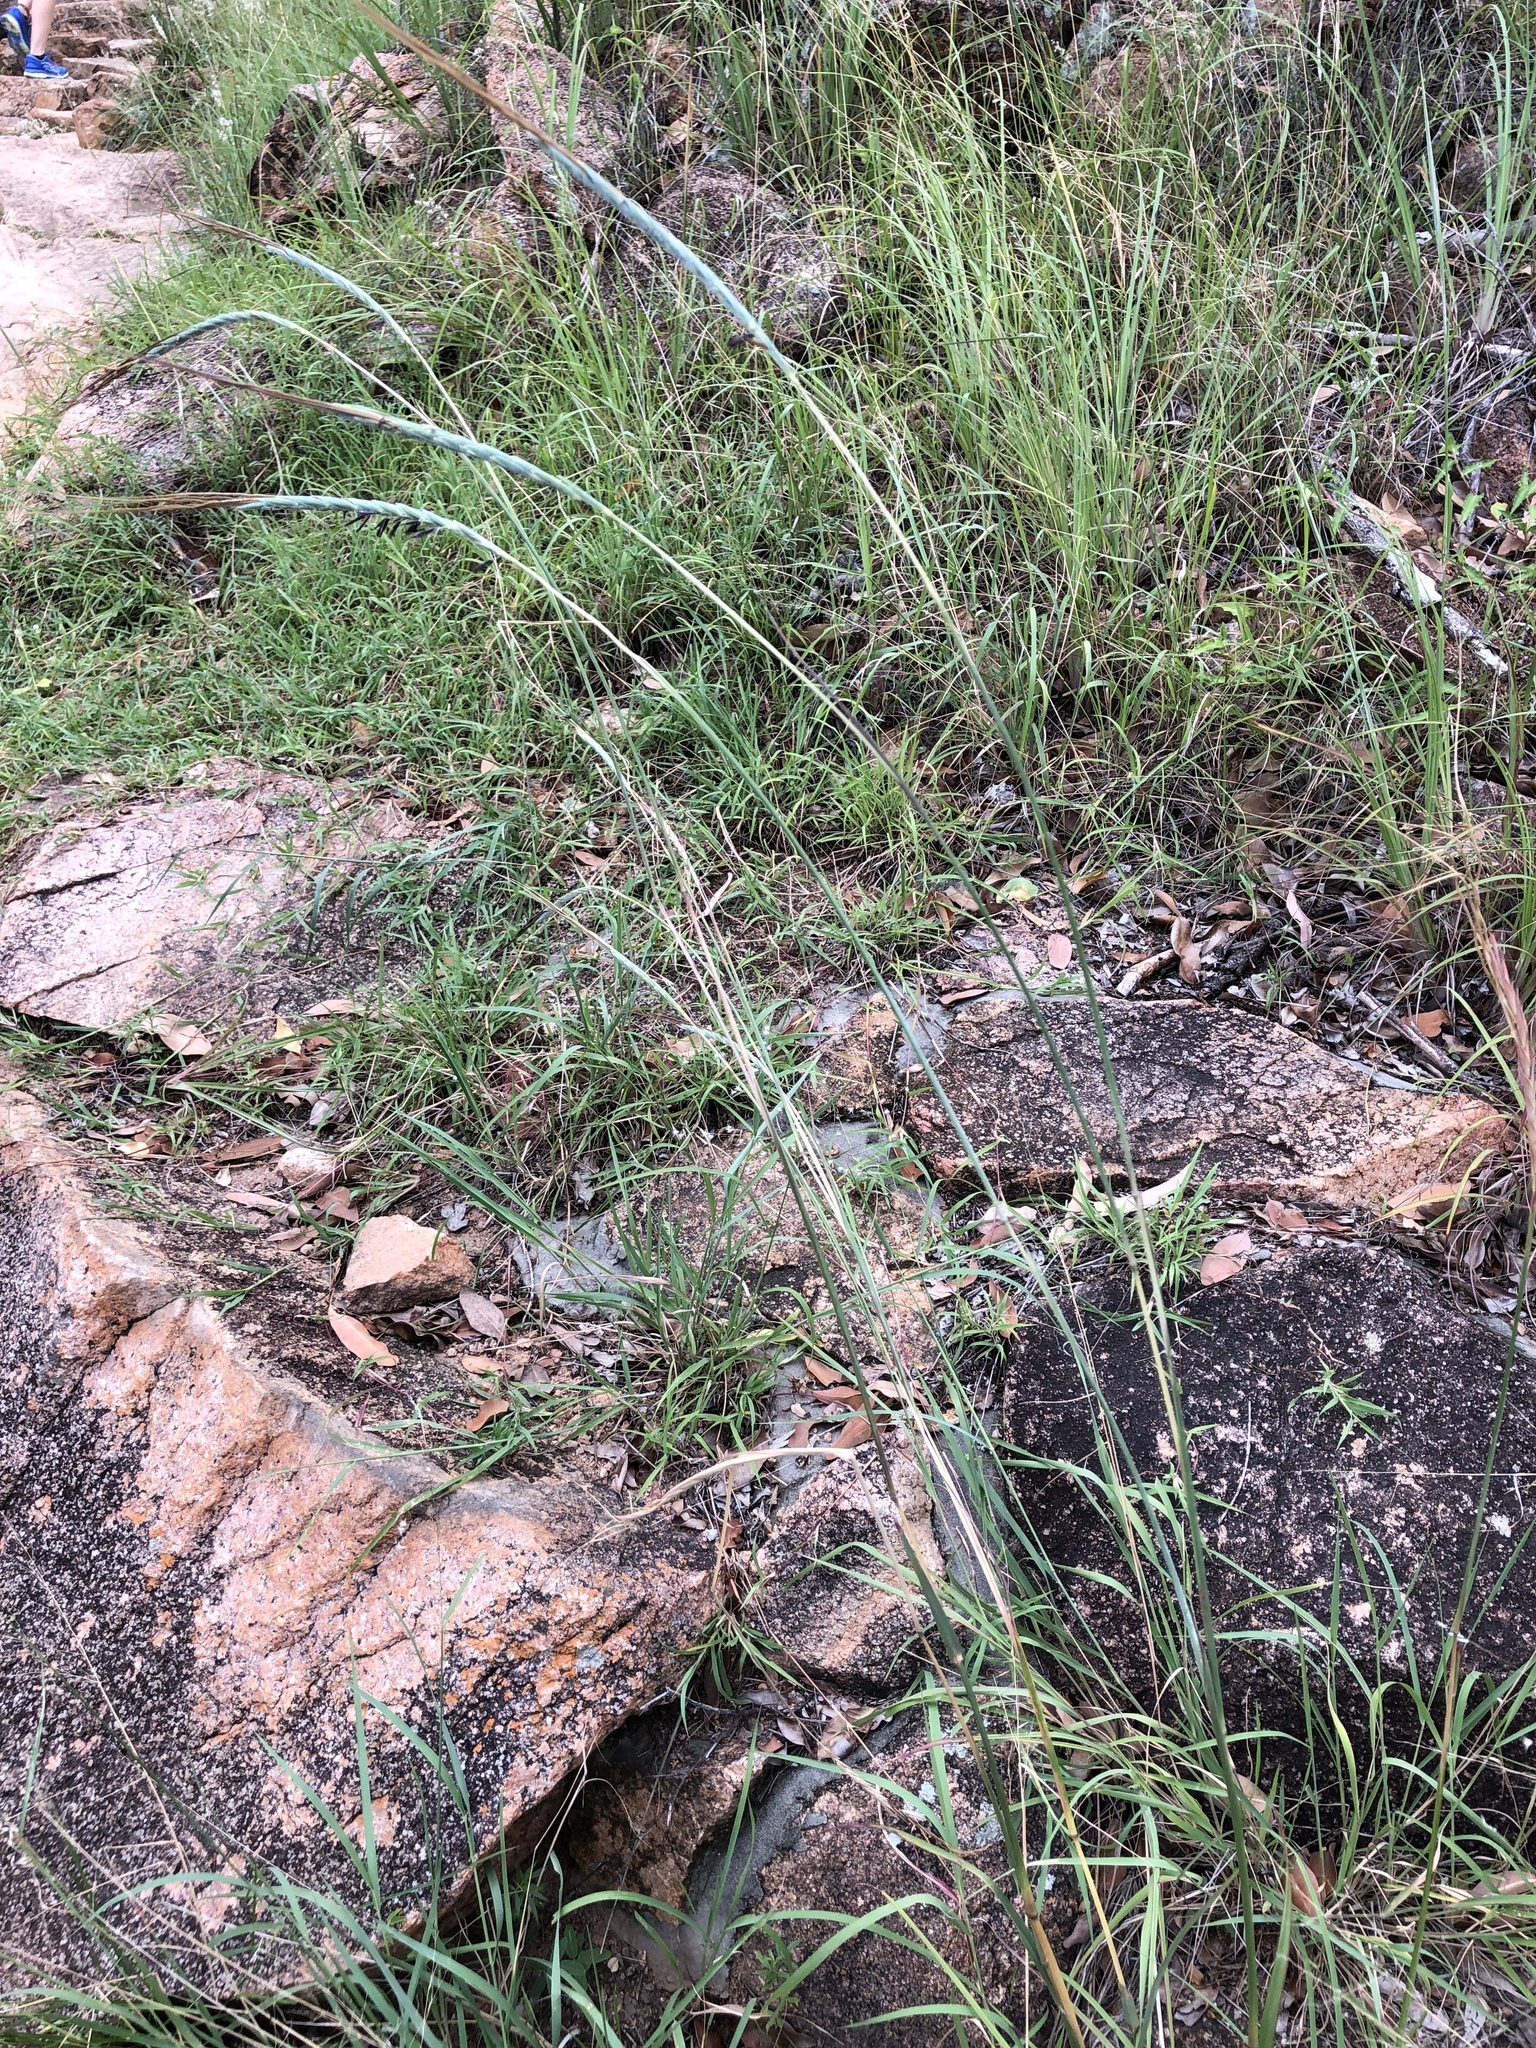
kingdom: Plantae
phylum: Tracheophyta
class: Liliopsida
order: Poales
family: Poaceae
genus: Heteropogon
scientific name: Heteropogon triticeus
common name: Sugar grass
